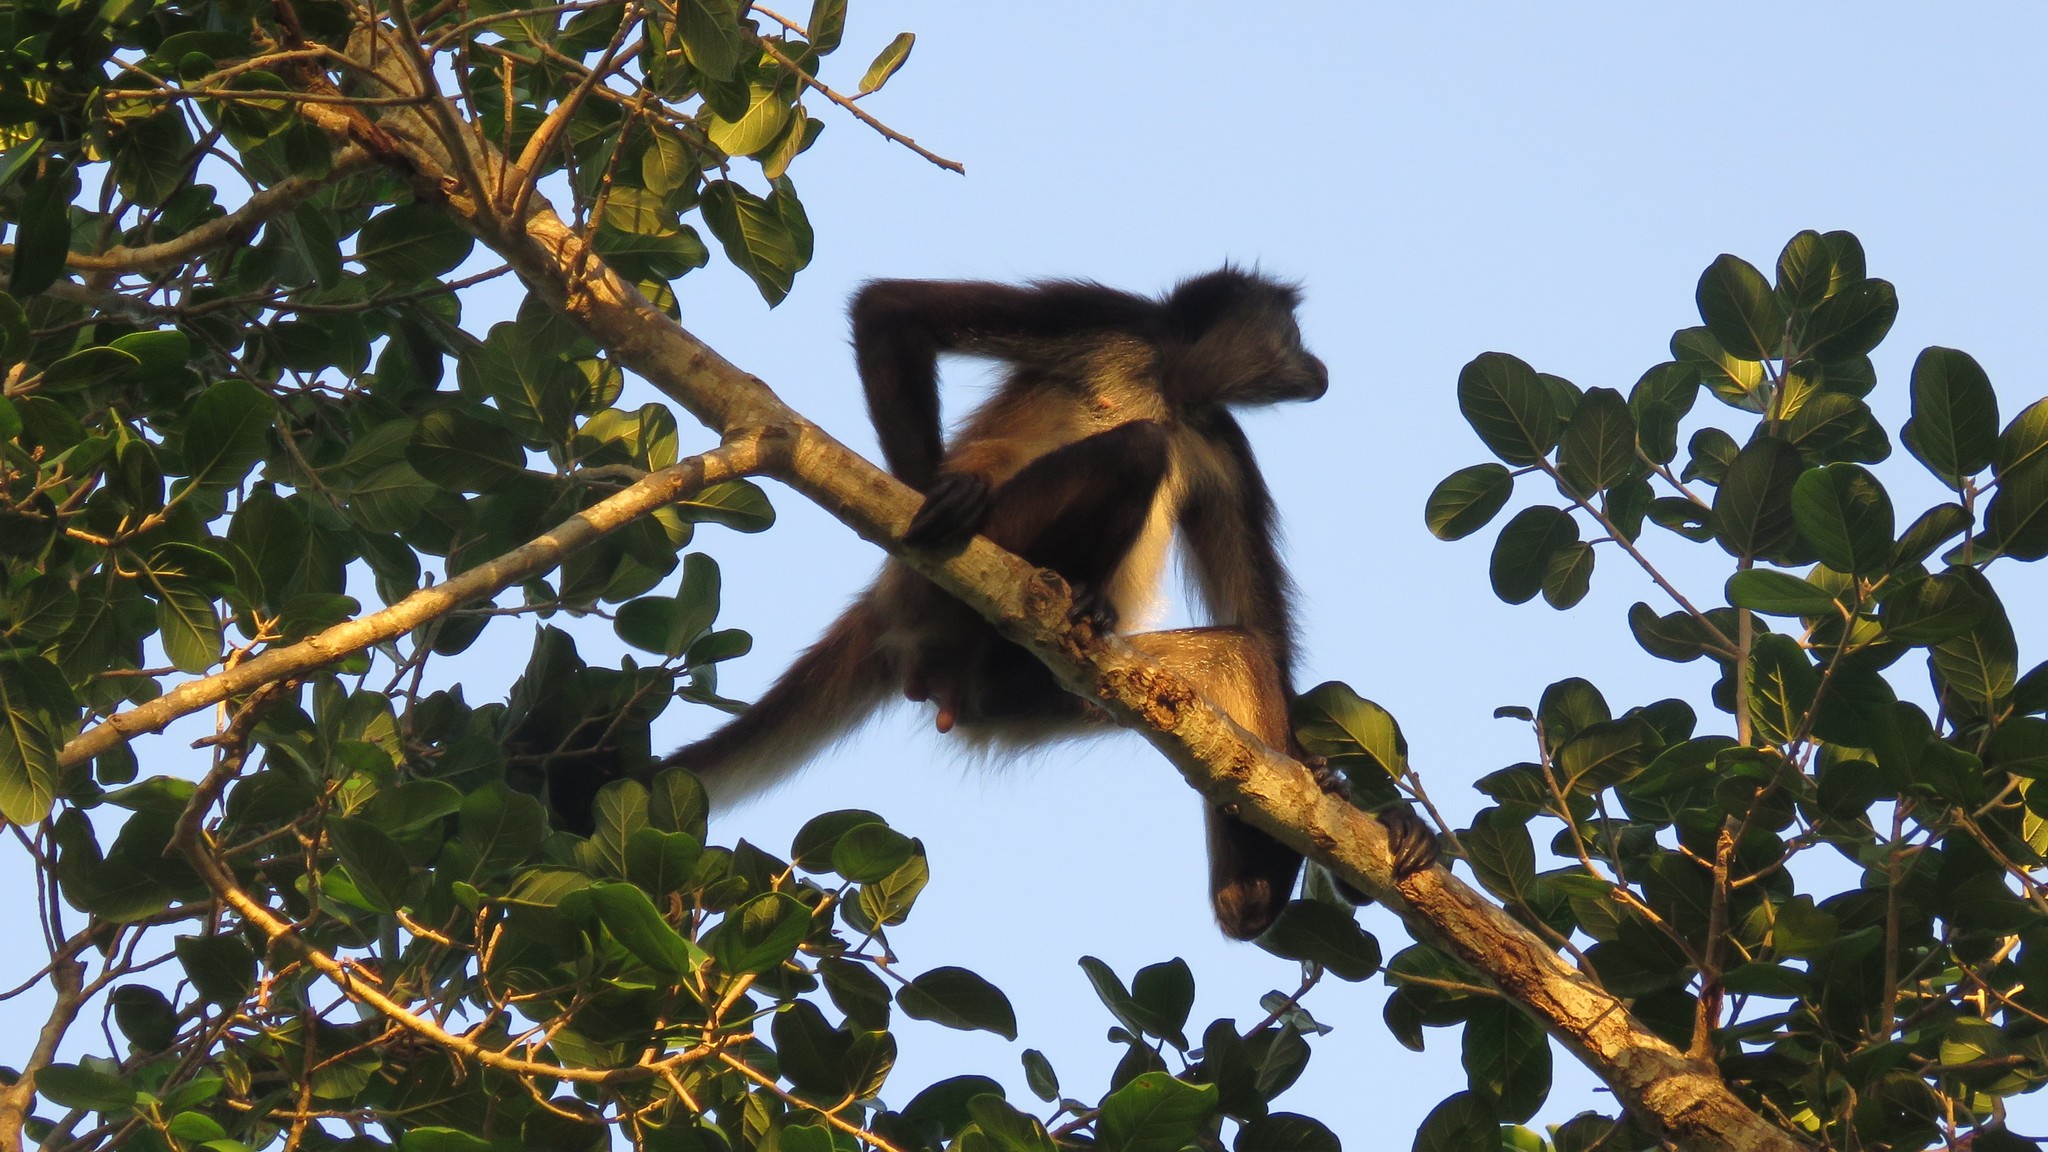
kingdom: Animalia
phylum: Chordata
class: Mammalia
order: Primates
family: Atelidae
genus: Ateles
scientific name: Ateles geoffroyi
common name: Black-handed spider monkey
